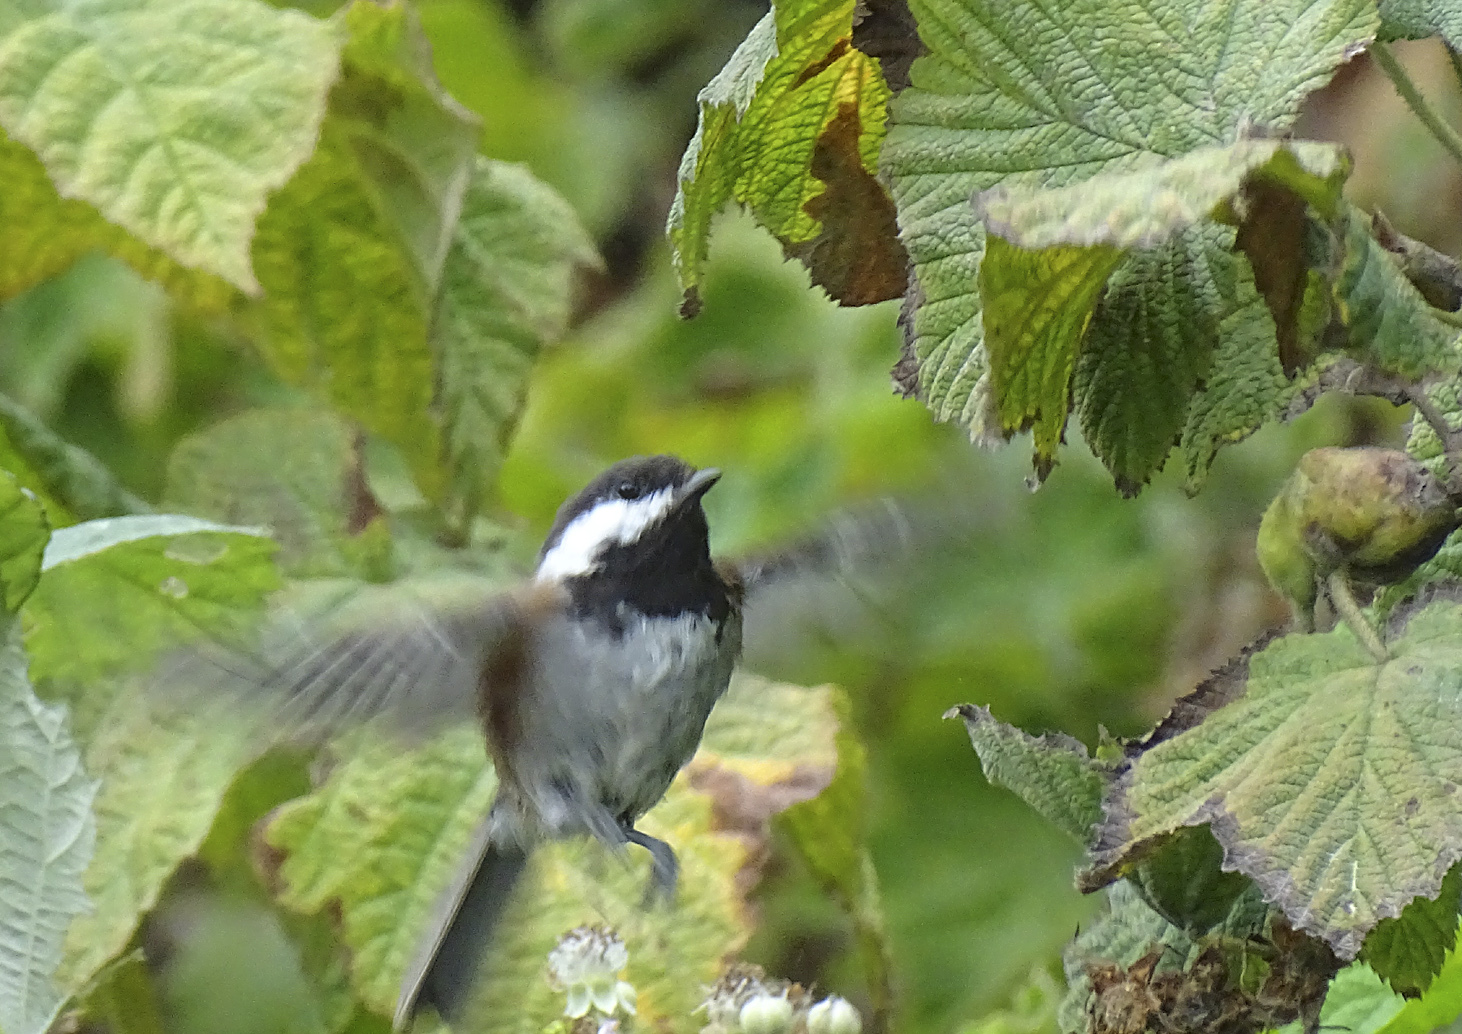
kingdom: Animalia
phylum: Chordata
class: Aves
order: Passeriformes
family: Paridae
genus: Poecile
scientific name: Poecile rufescens
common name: Chestnut-backed chickadee
